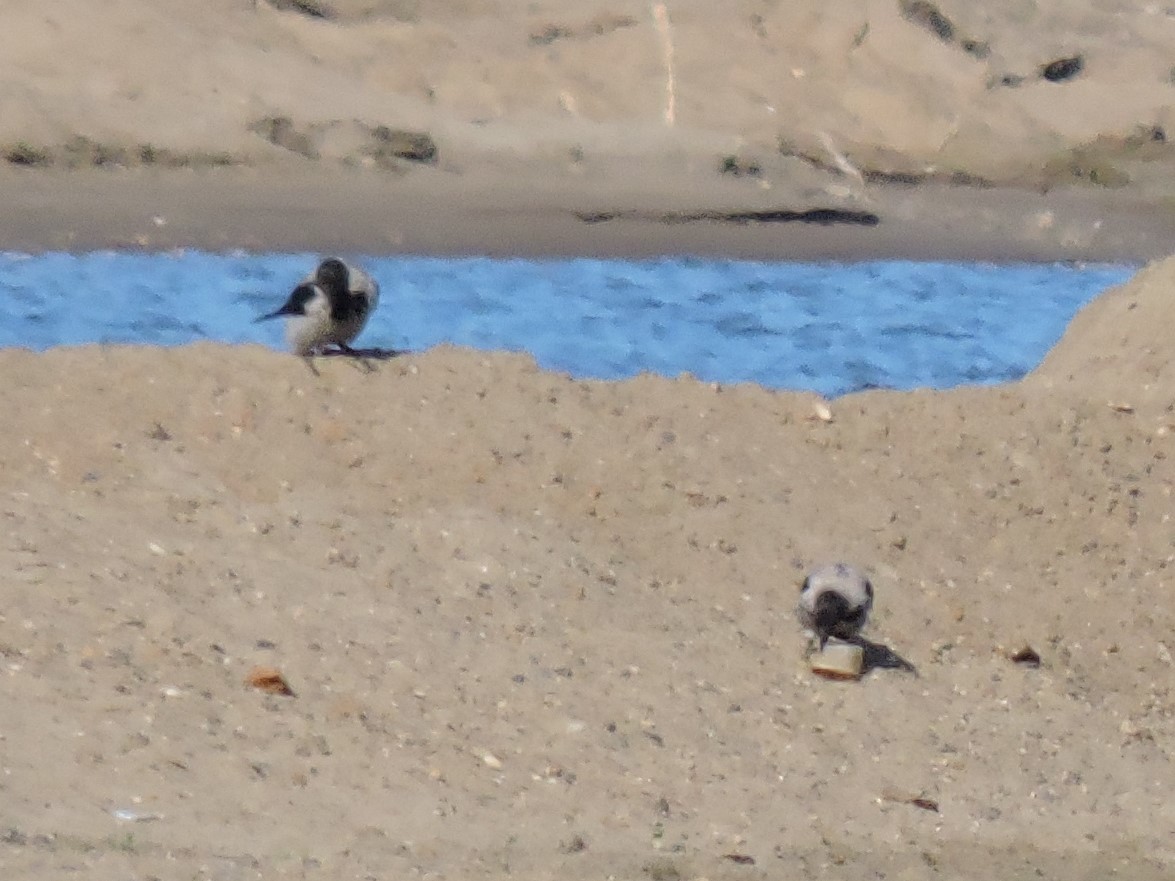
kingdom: Animalia
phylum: Chordata
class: Aves
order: Passeriformes
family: Corvidae
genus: Corvus
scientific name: Corvus cornix
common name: Hooded crow
